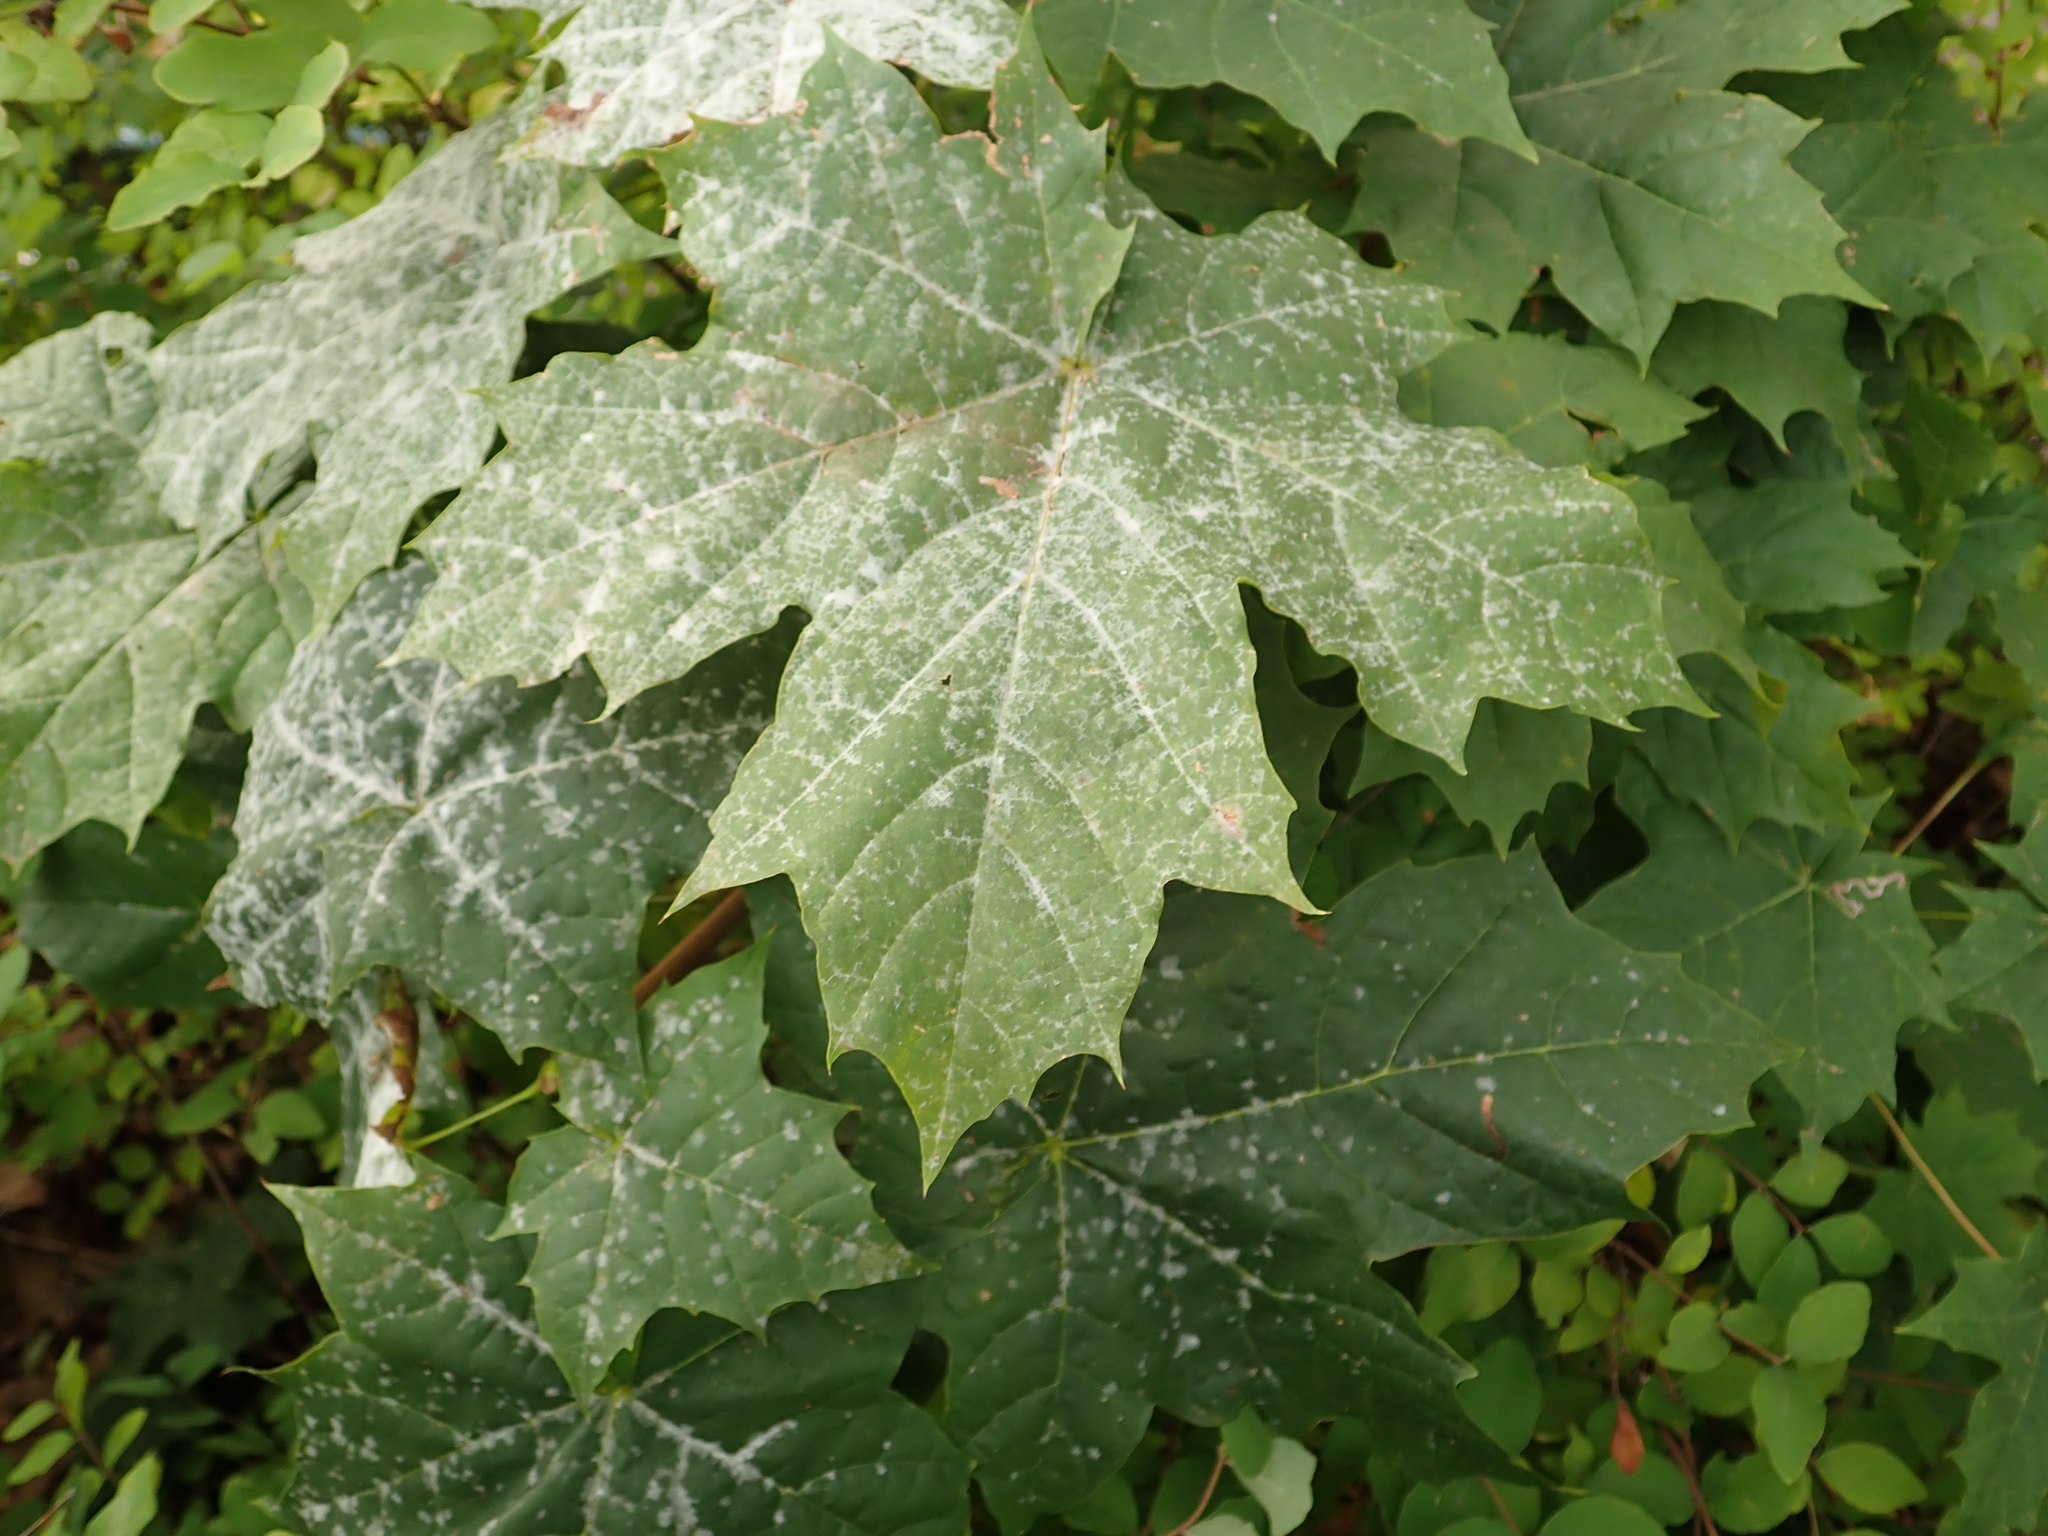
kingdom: Plantae
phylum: Tracheophyta
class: Magnoliopsida
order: Sapindales
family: Sapindaceae
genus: Acer
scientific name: Acer platanoides
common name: Norway maple
